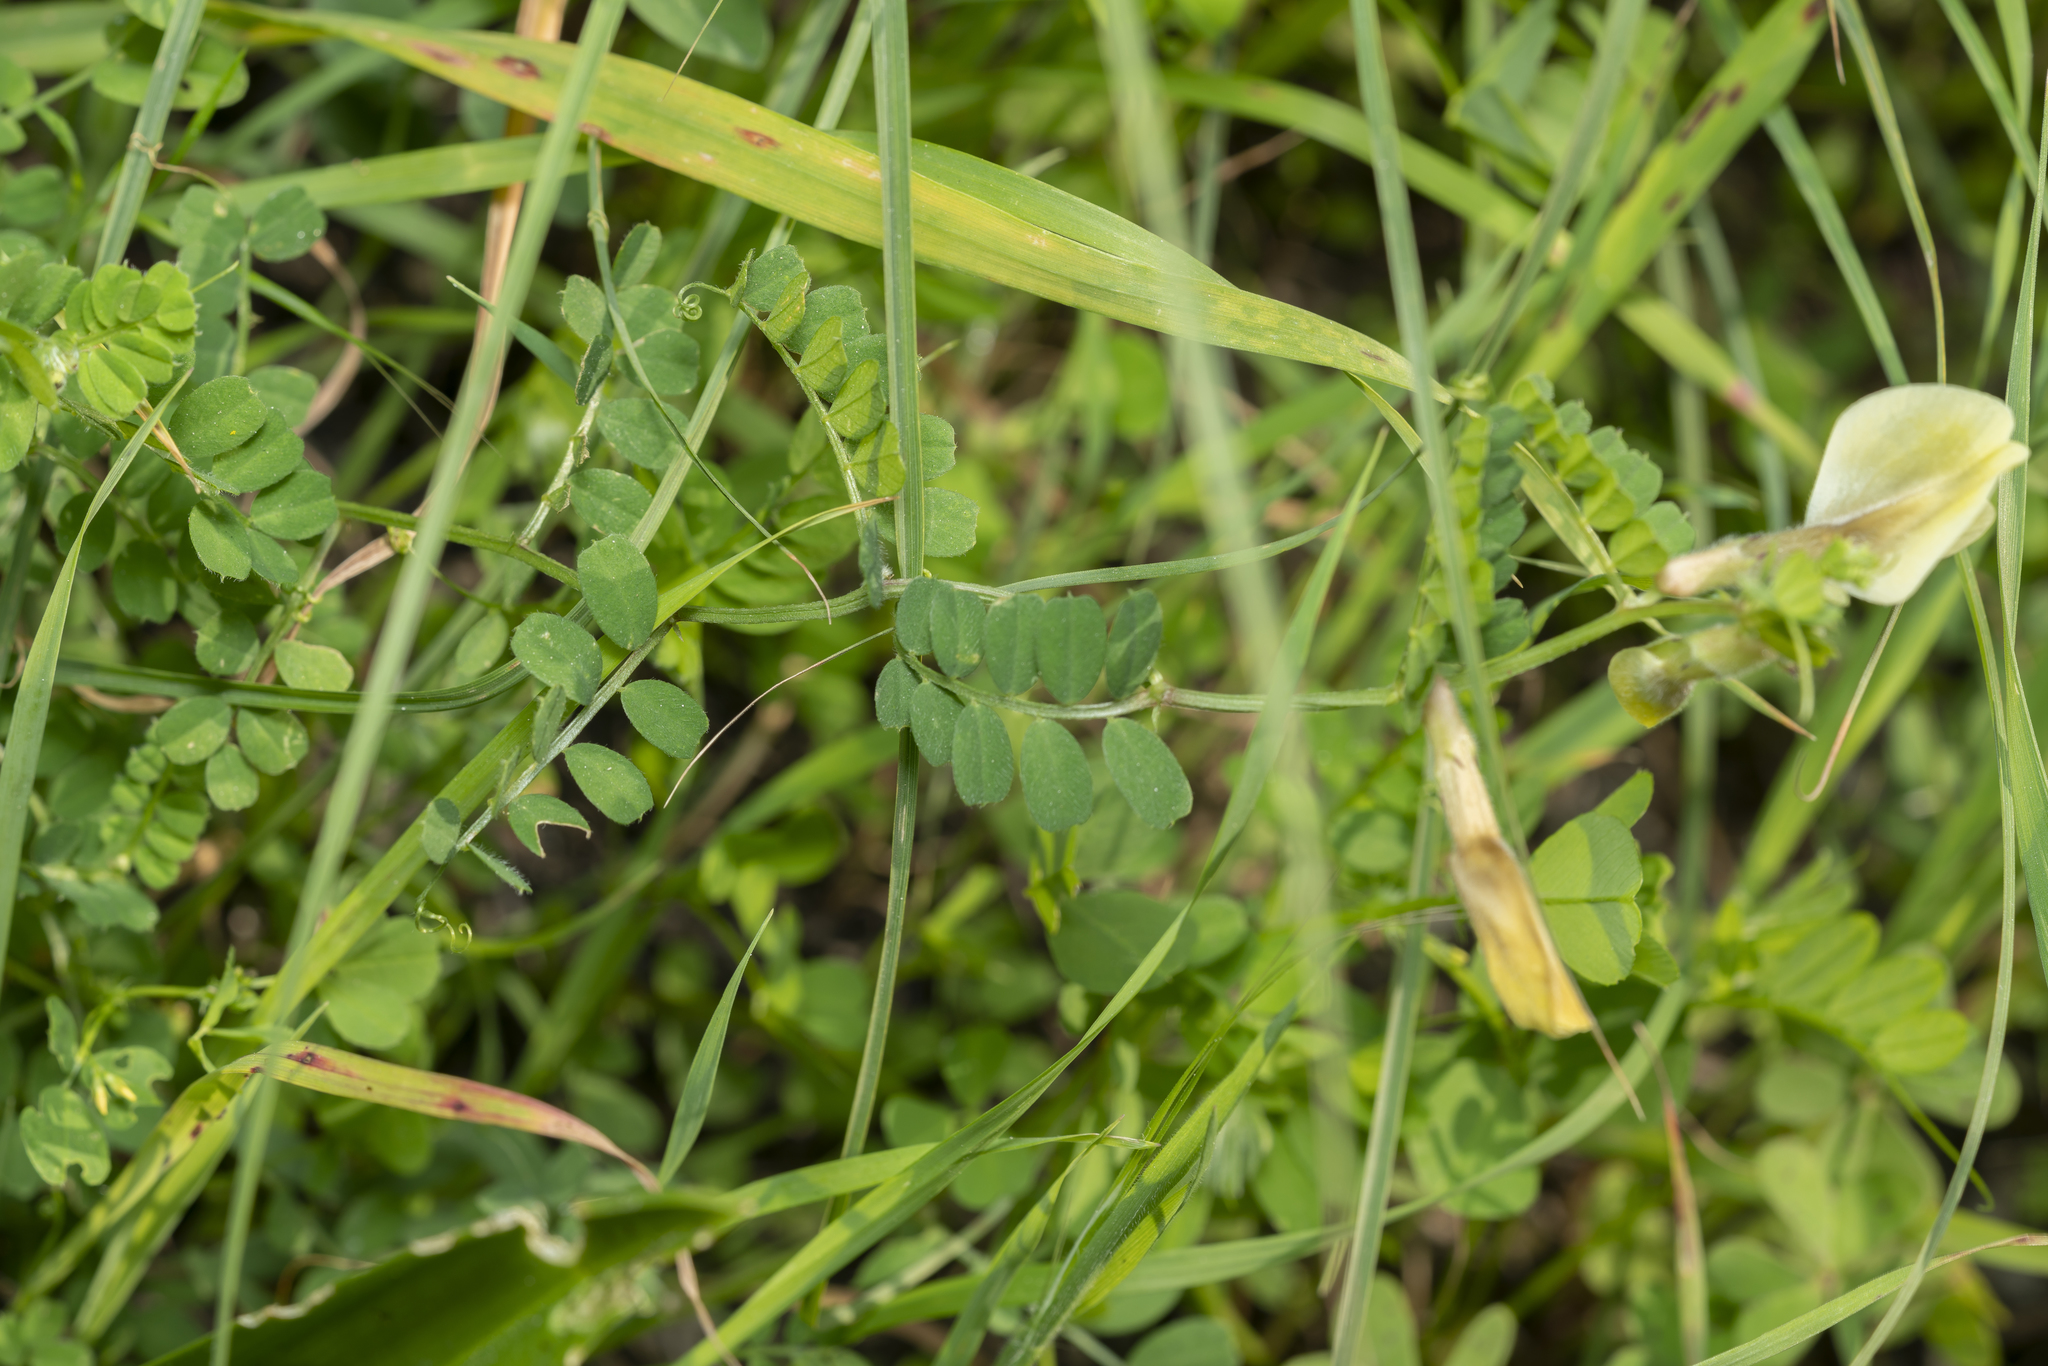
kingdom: Plantae
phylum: Tracheophyta
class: Magnoliopsida
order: Fabales
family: Fabaceae
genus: Vicia
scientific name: Vicia hybrida
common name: Hairy yellow vetch
